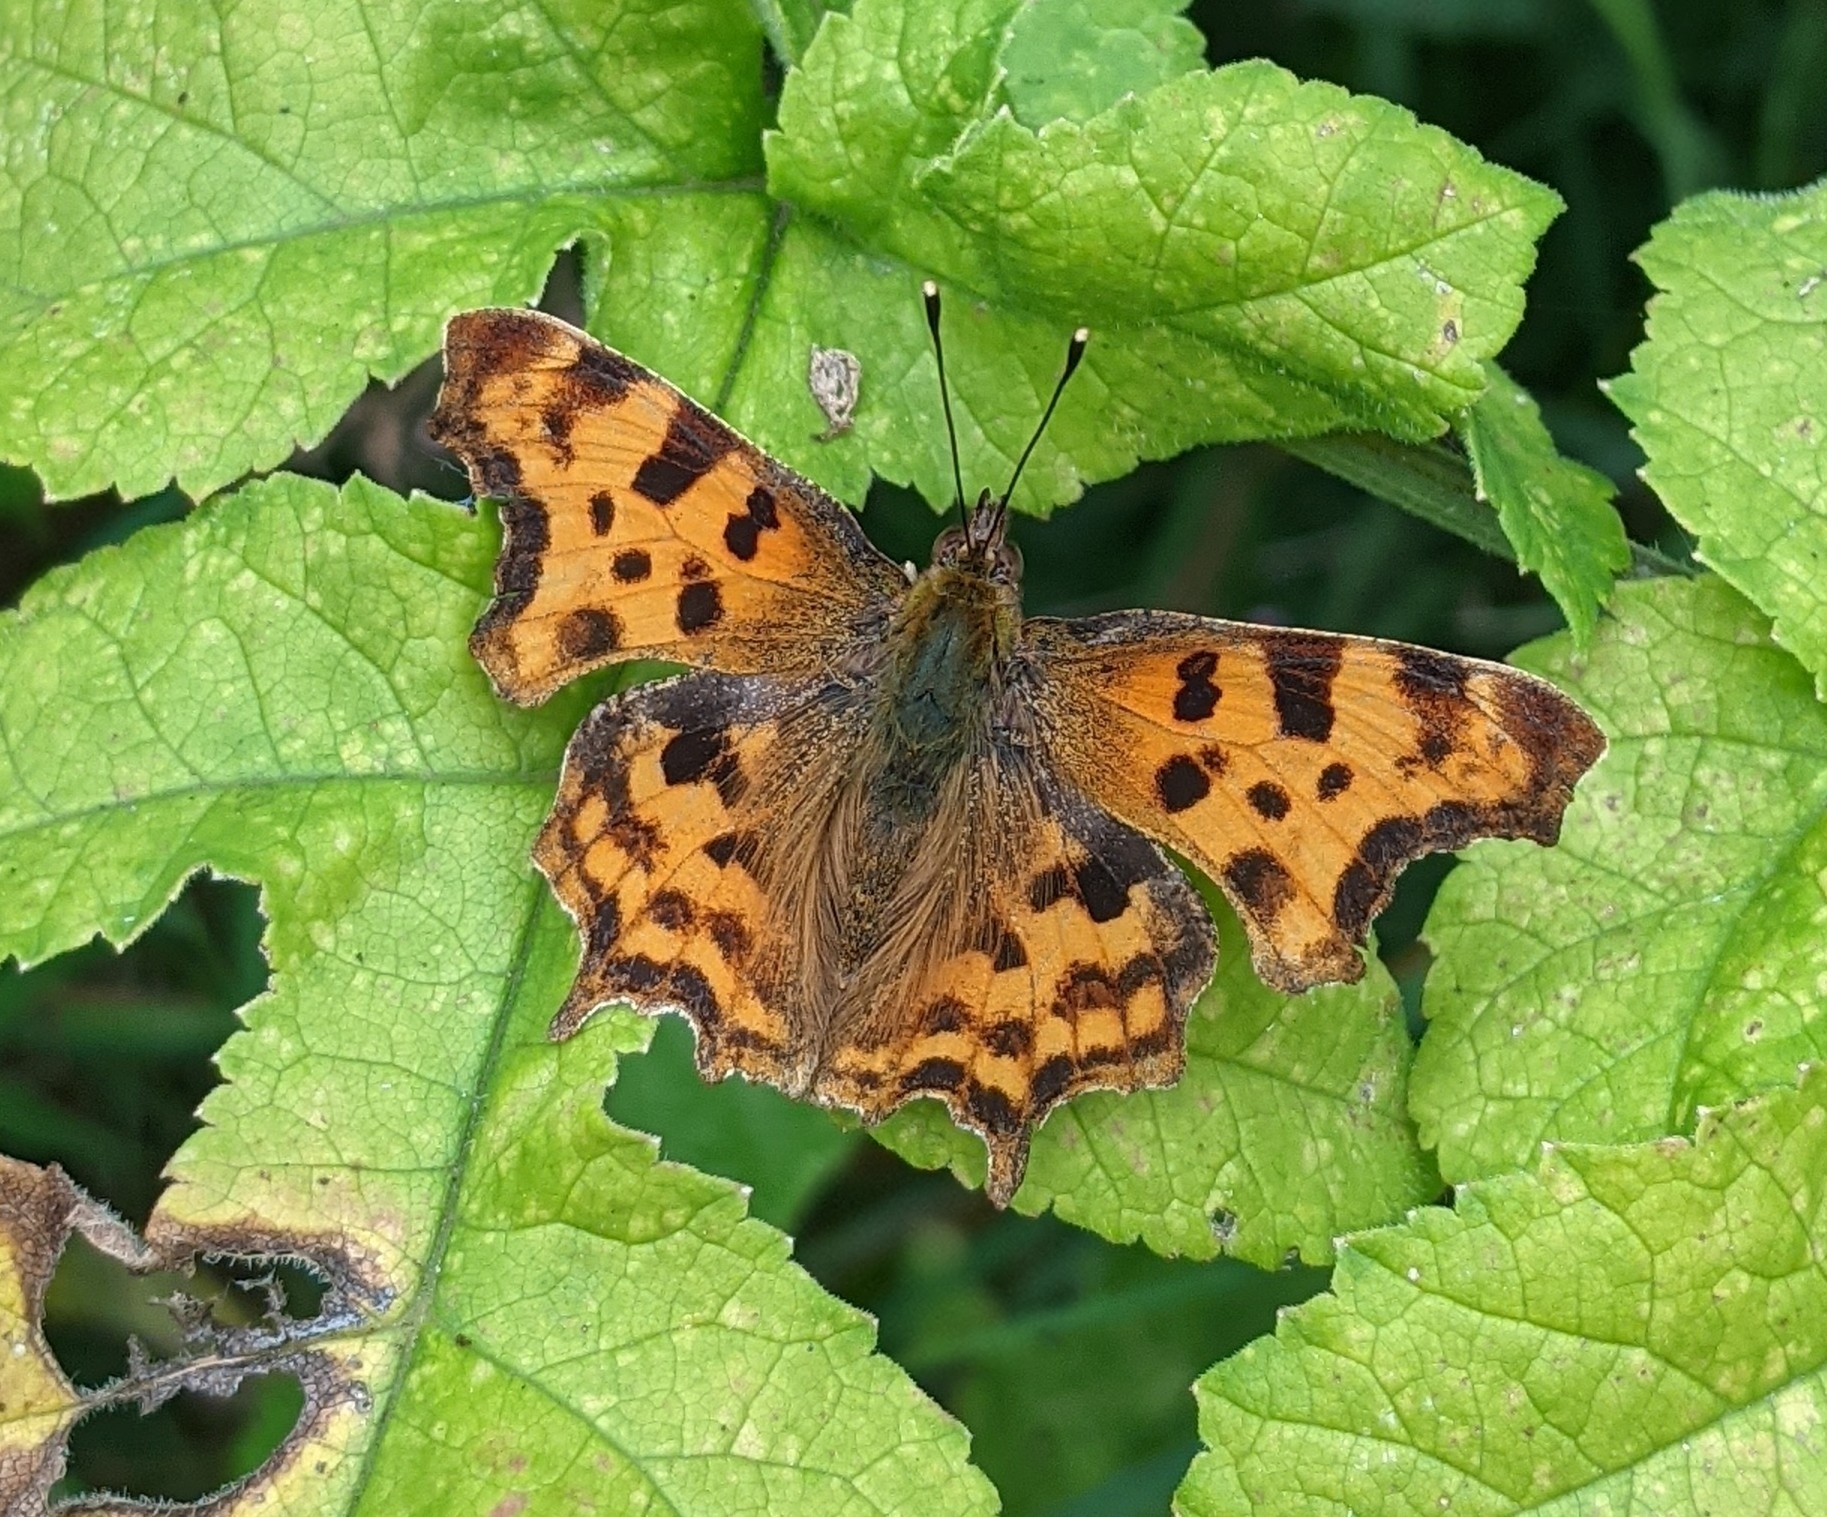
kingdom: Animalia
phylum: Arthropoda
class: Insecta
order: Lepidoptera
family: Nymphalidae
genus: Polygonia
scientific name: Polygonia c-album
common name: Comma
